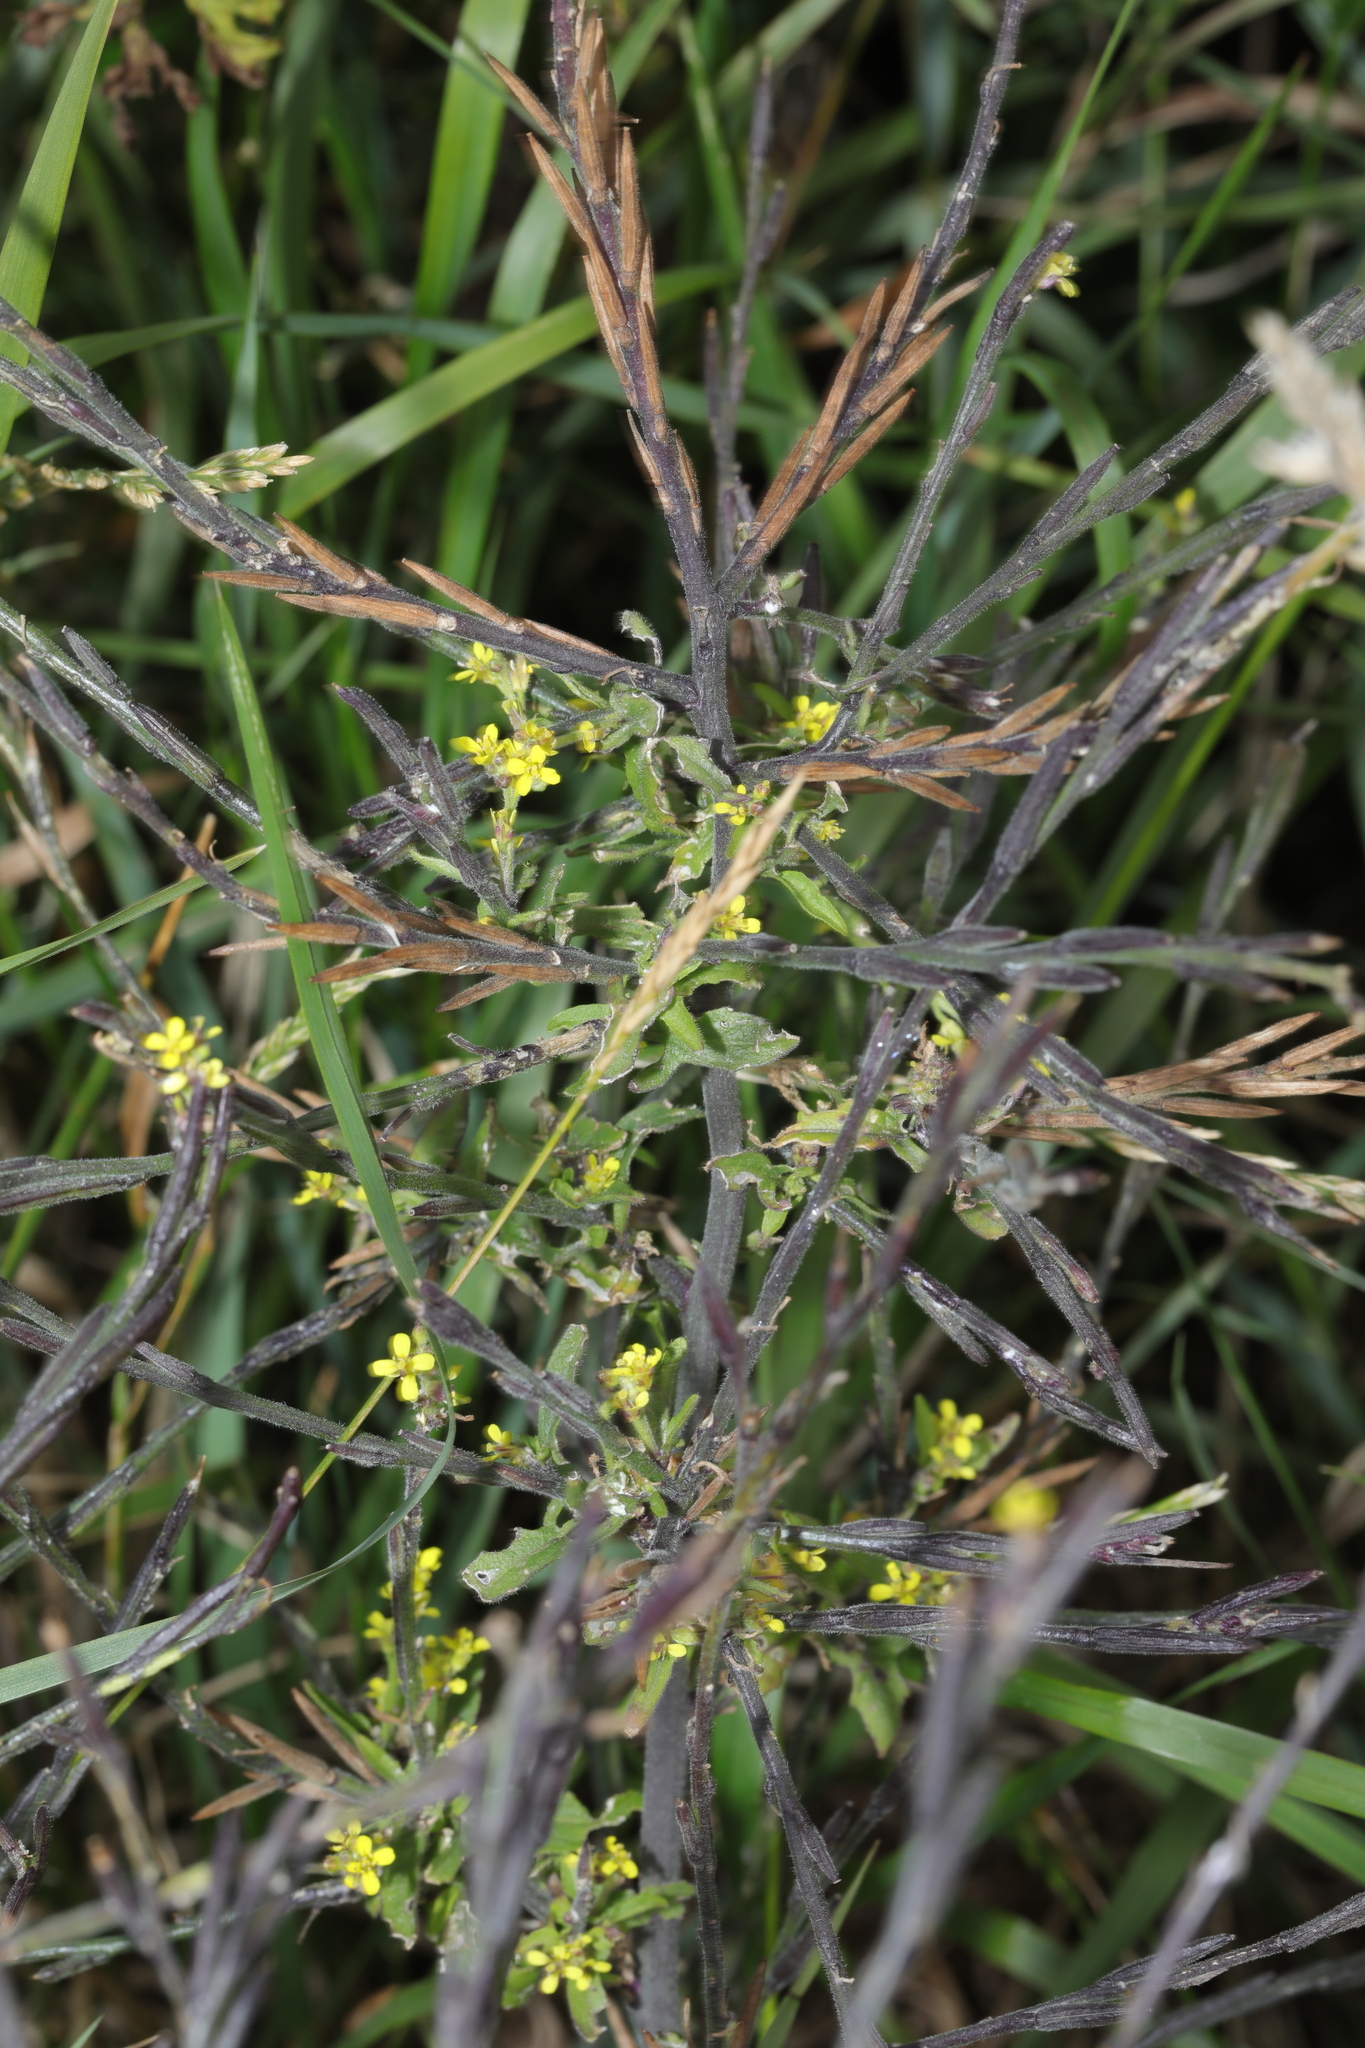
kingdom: Plantae
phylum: Tracheophyta
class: Magnoliopsida
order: Brassicales
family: Brassicaceae
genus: Sisymbrium
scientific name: Sisymbrium officinale
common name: Hedge mustard
